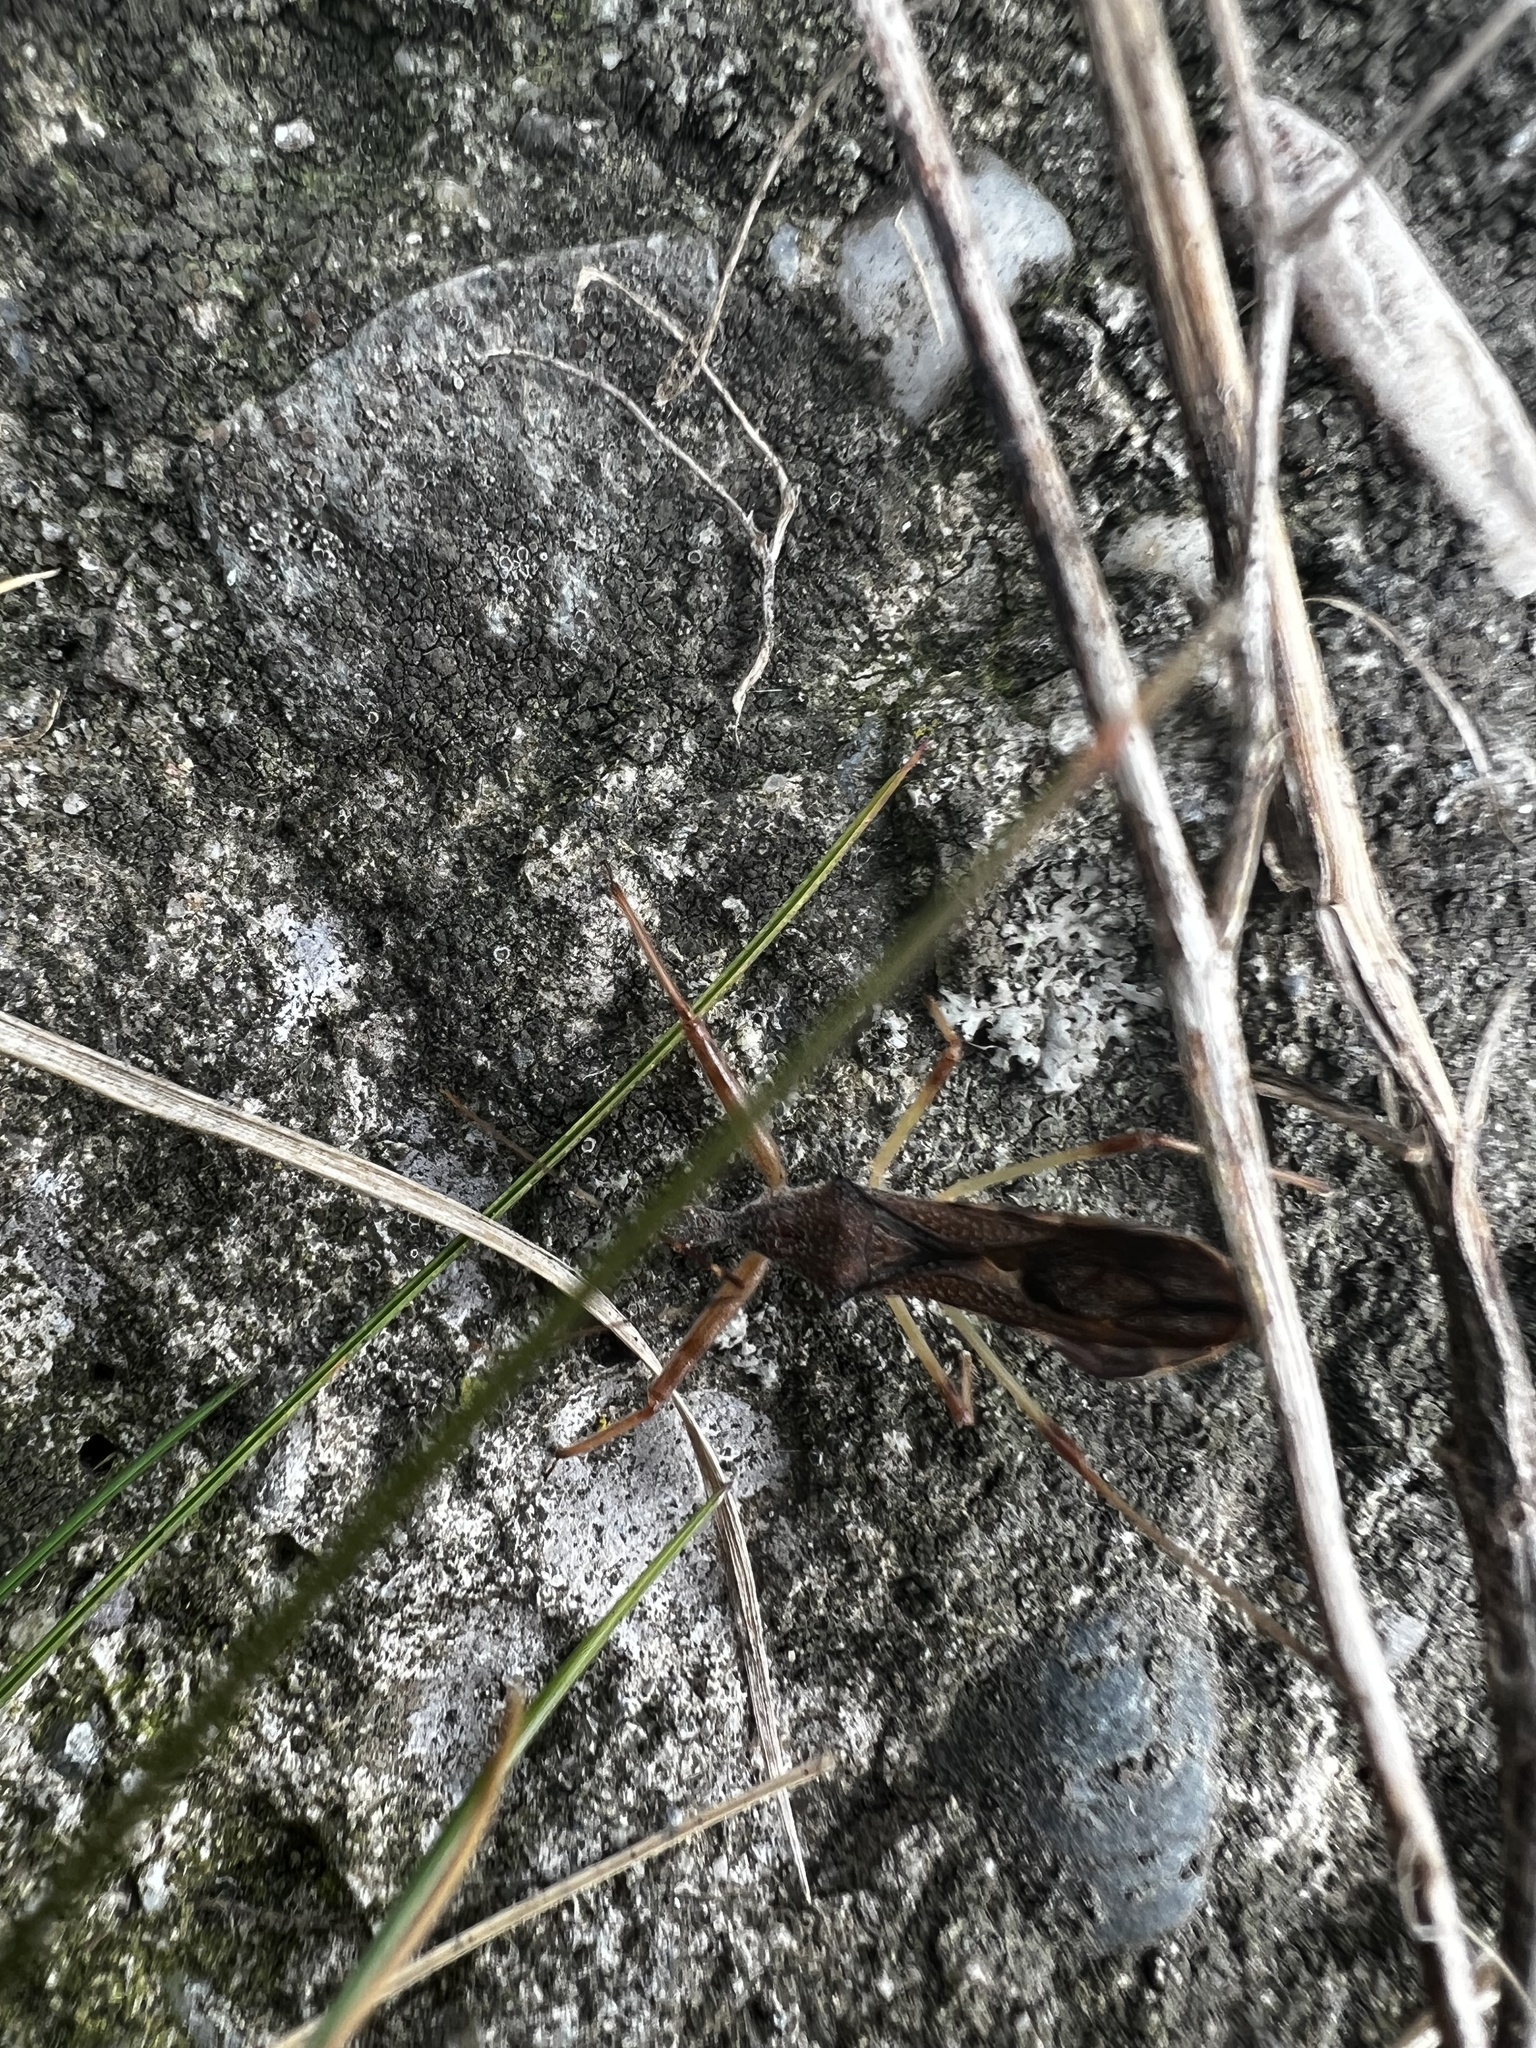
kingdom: Animalia
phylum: Arthropoda
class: Insecta
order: Hemiptera
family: Reduviidae
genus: Nagusta
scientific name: Nagusta goedelii
